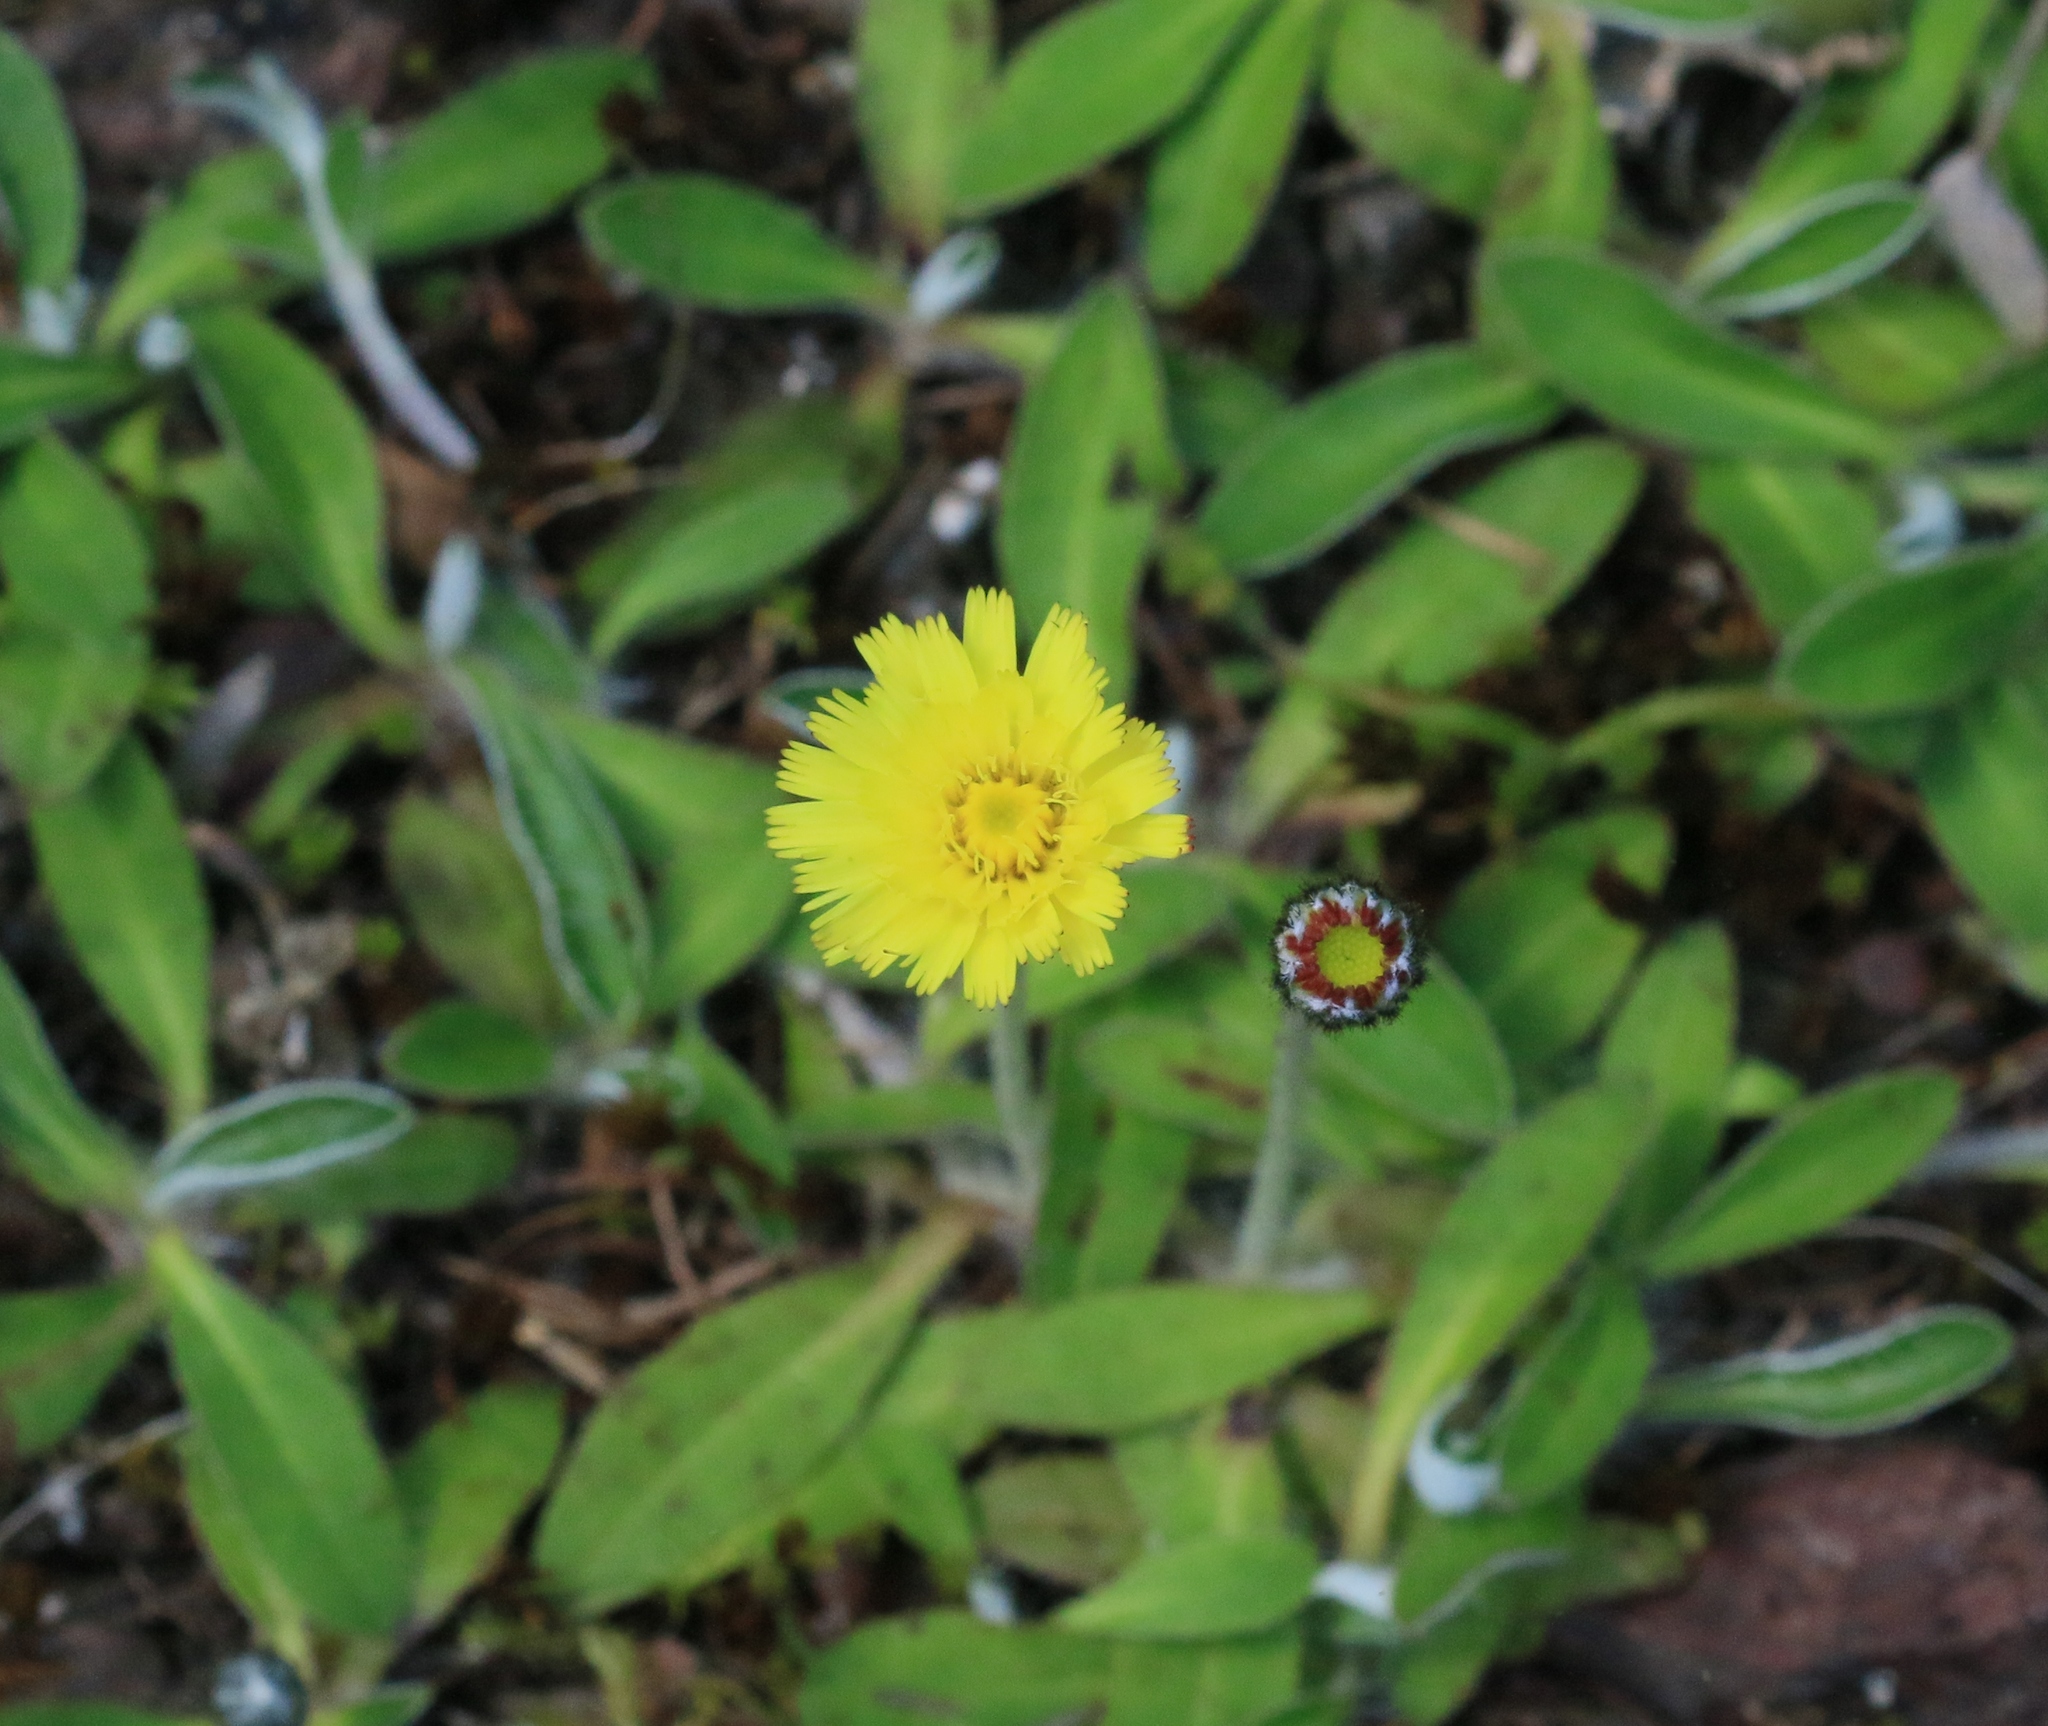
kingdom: Plantae
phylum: Tracheophyta
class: Magnoliopsida
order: Asterales
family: Asteraceae
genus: Pilosella
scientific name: Pilosella officinarum
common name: Mouse-ear hawkweed
